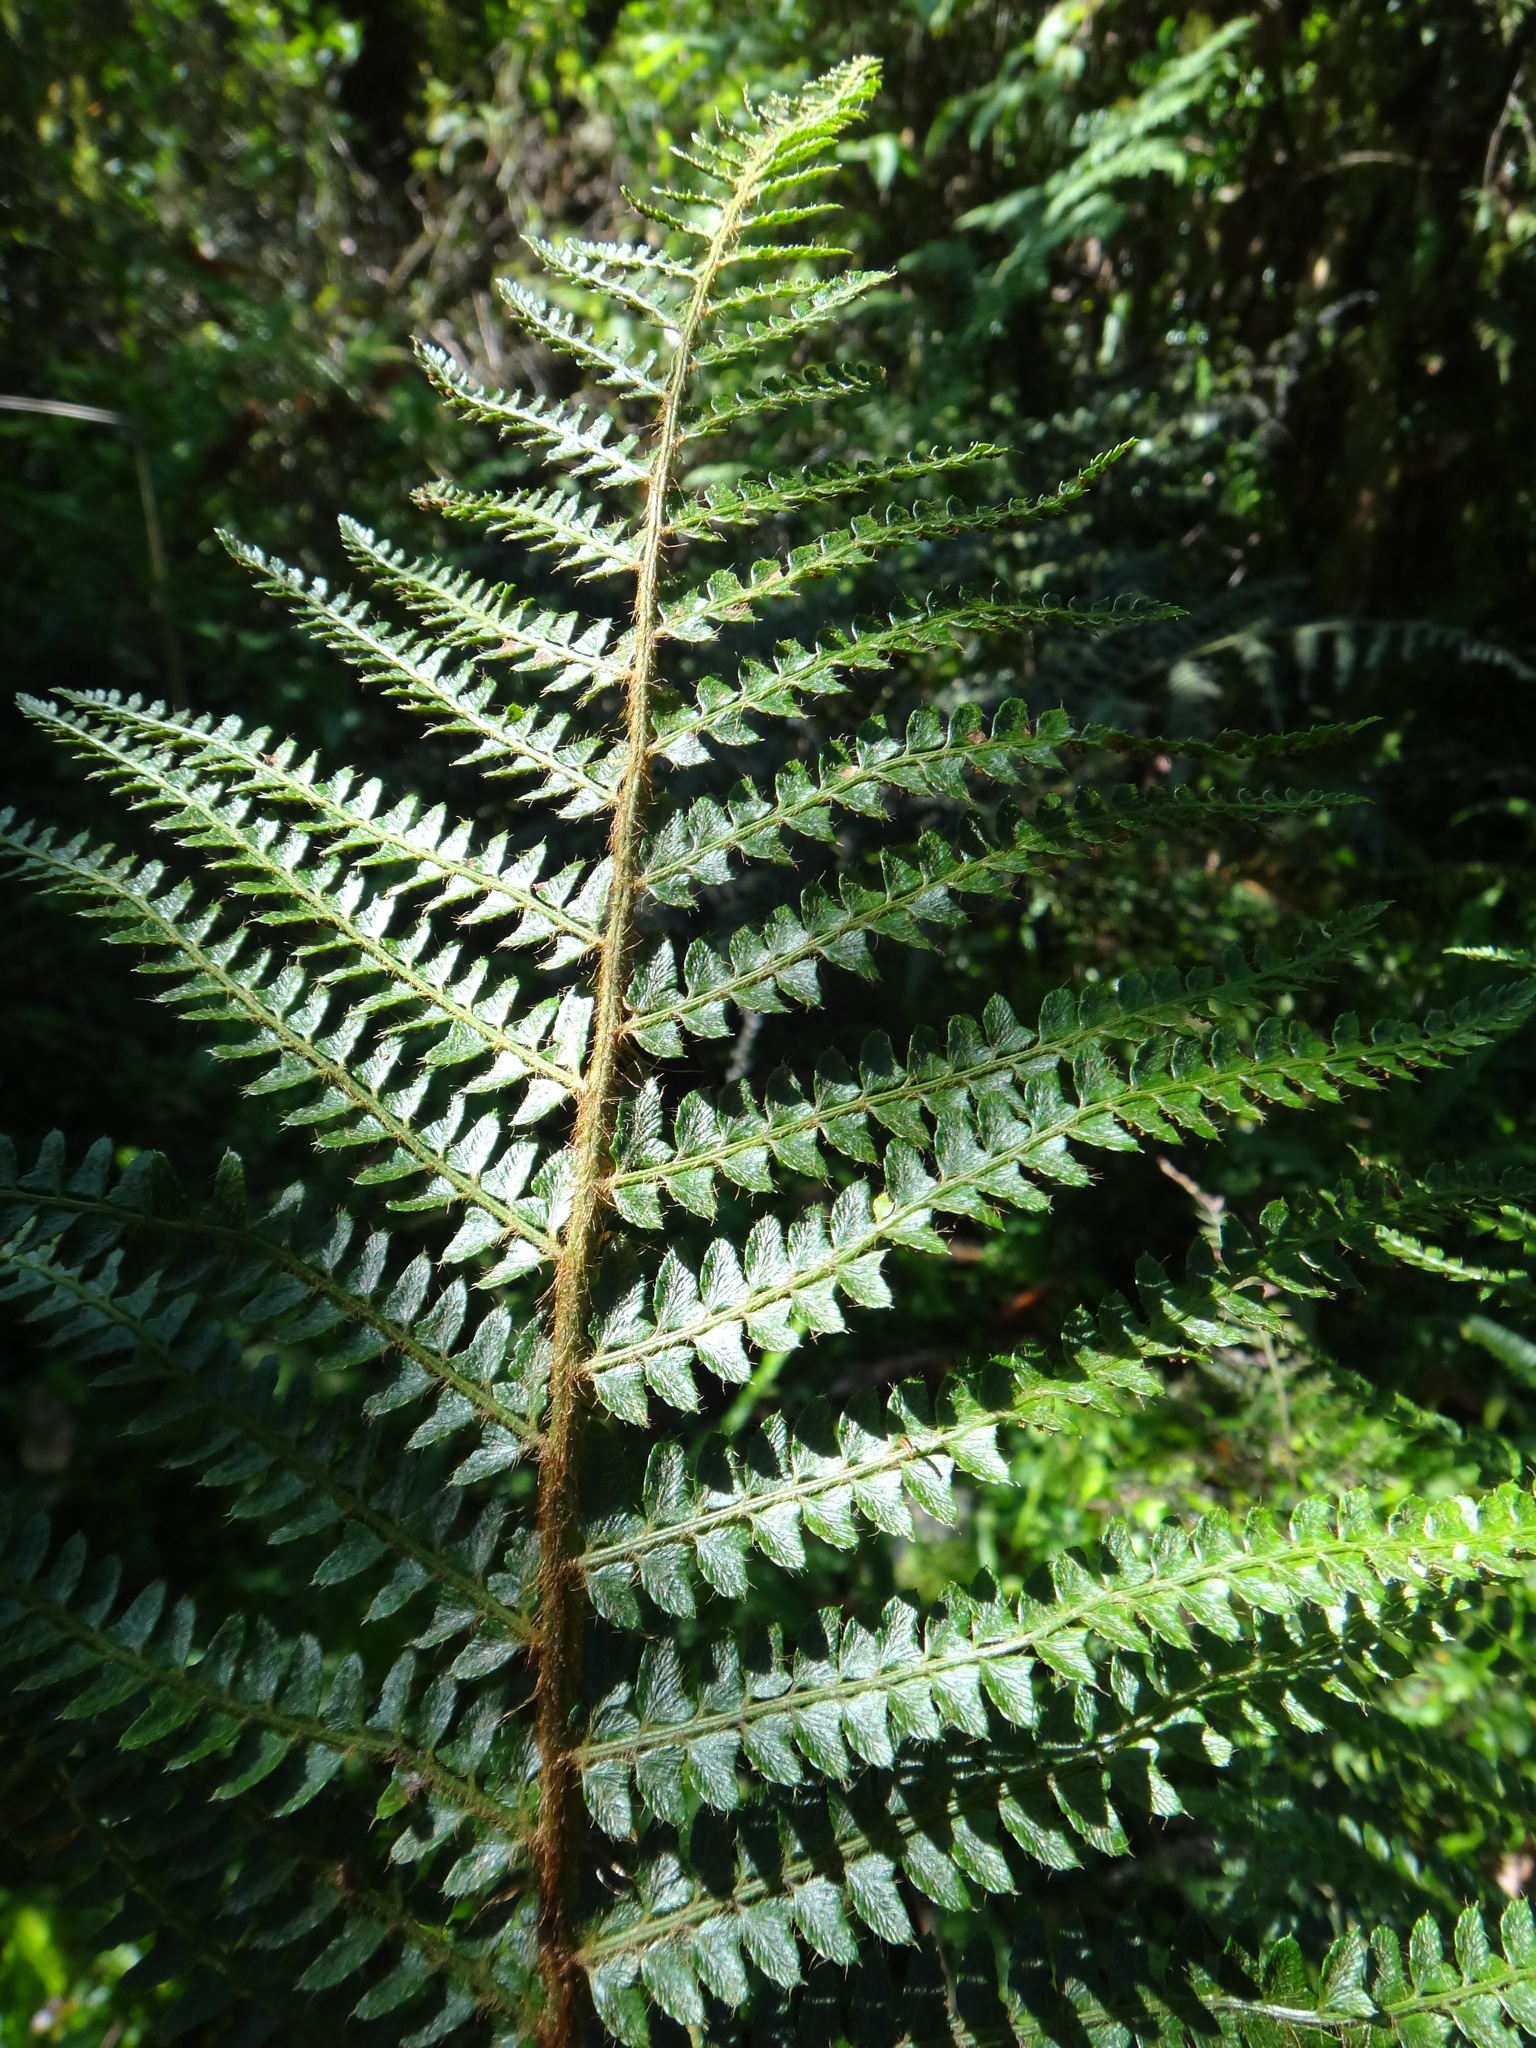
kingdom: Plantae
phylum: Tracheophyta
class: Polypodiopsida
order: Polypodiales
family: Dryopteridaceae
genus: Polystichum
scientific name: Polystichum parvipinnulum
